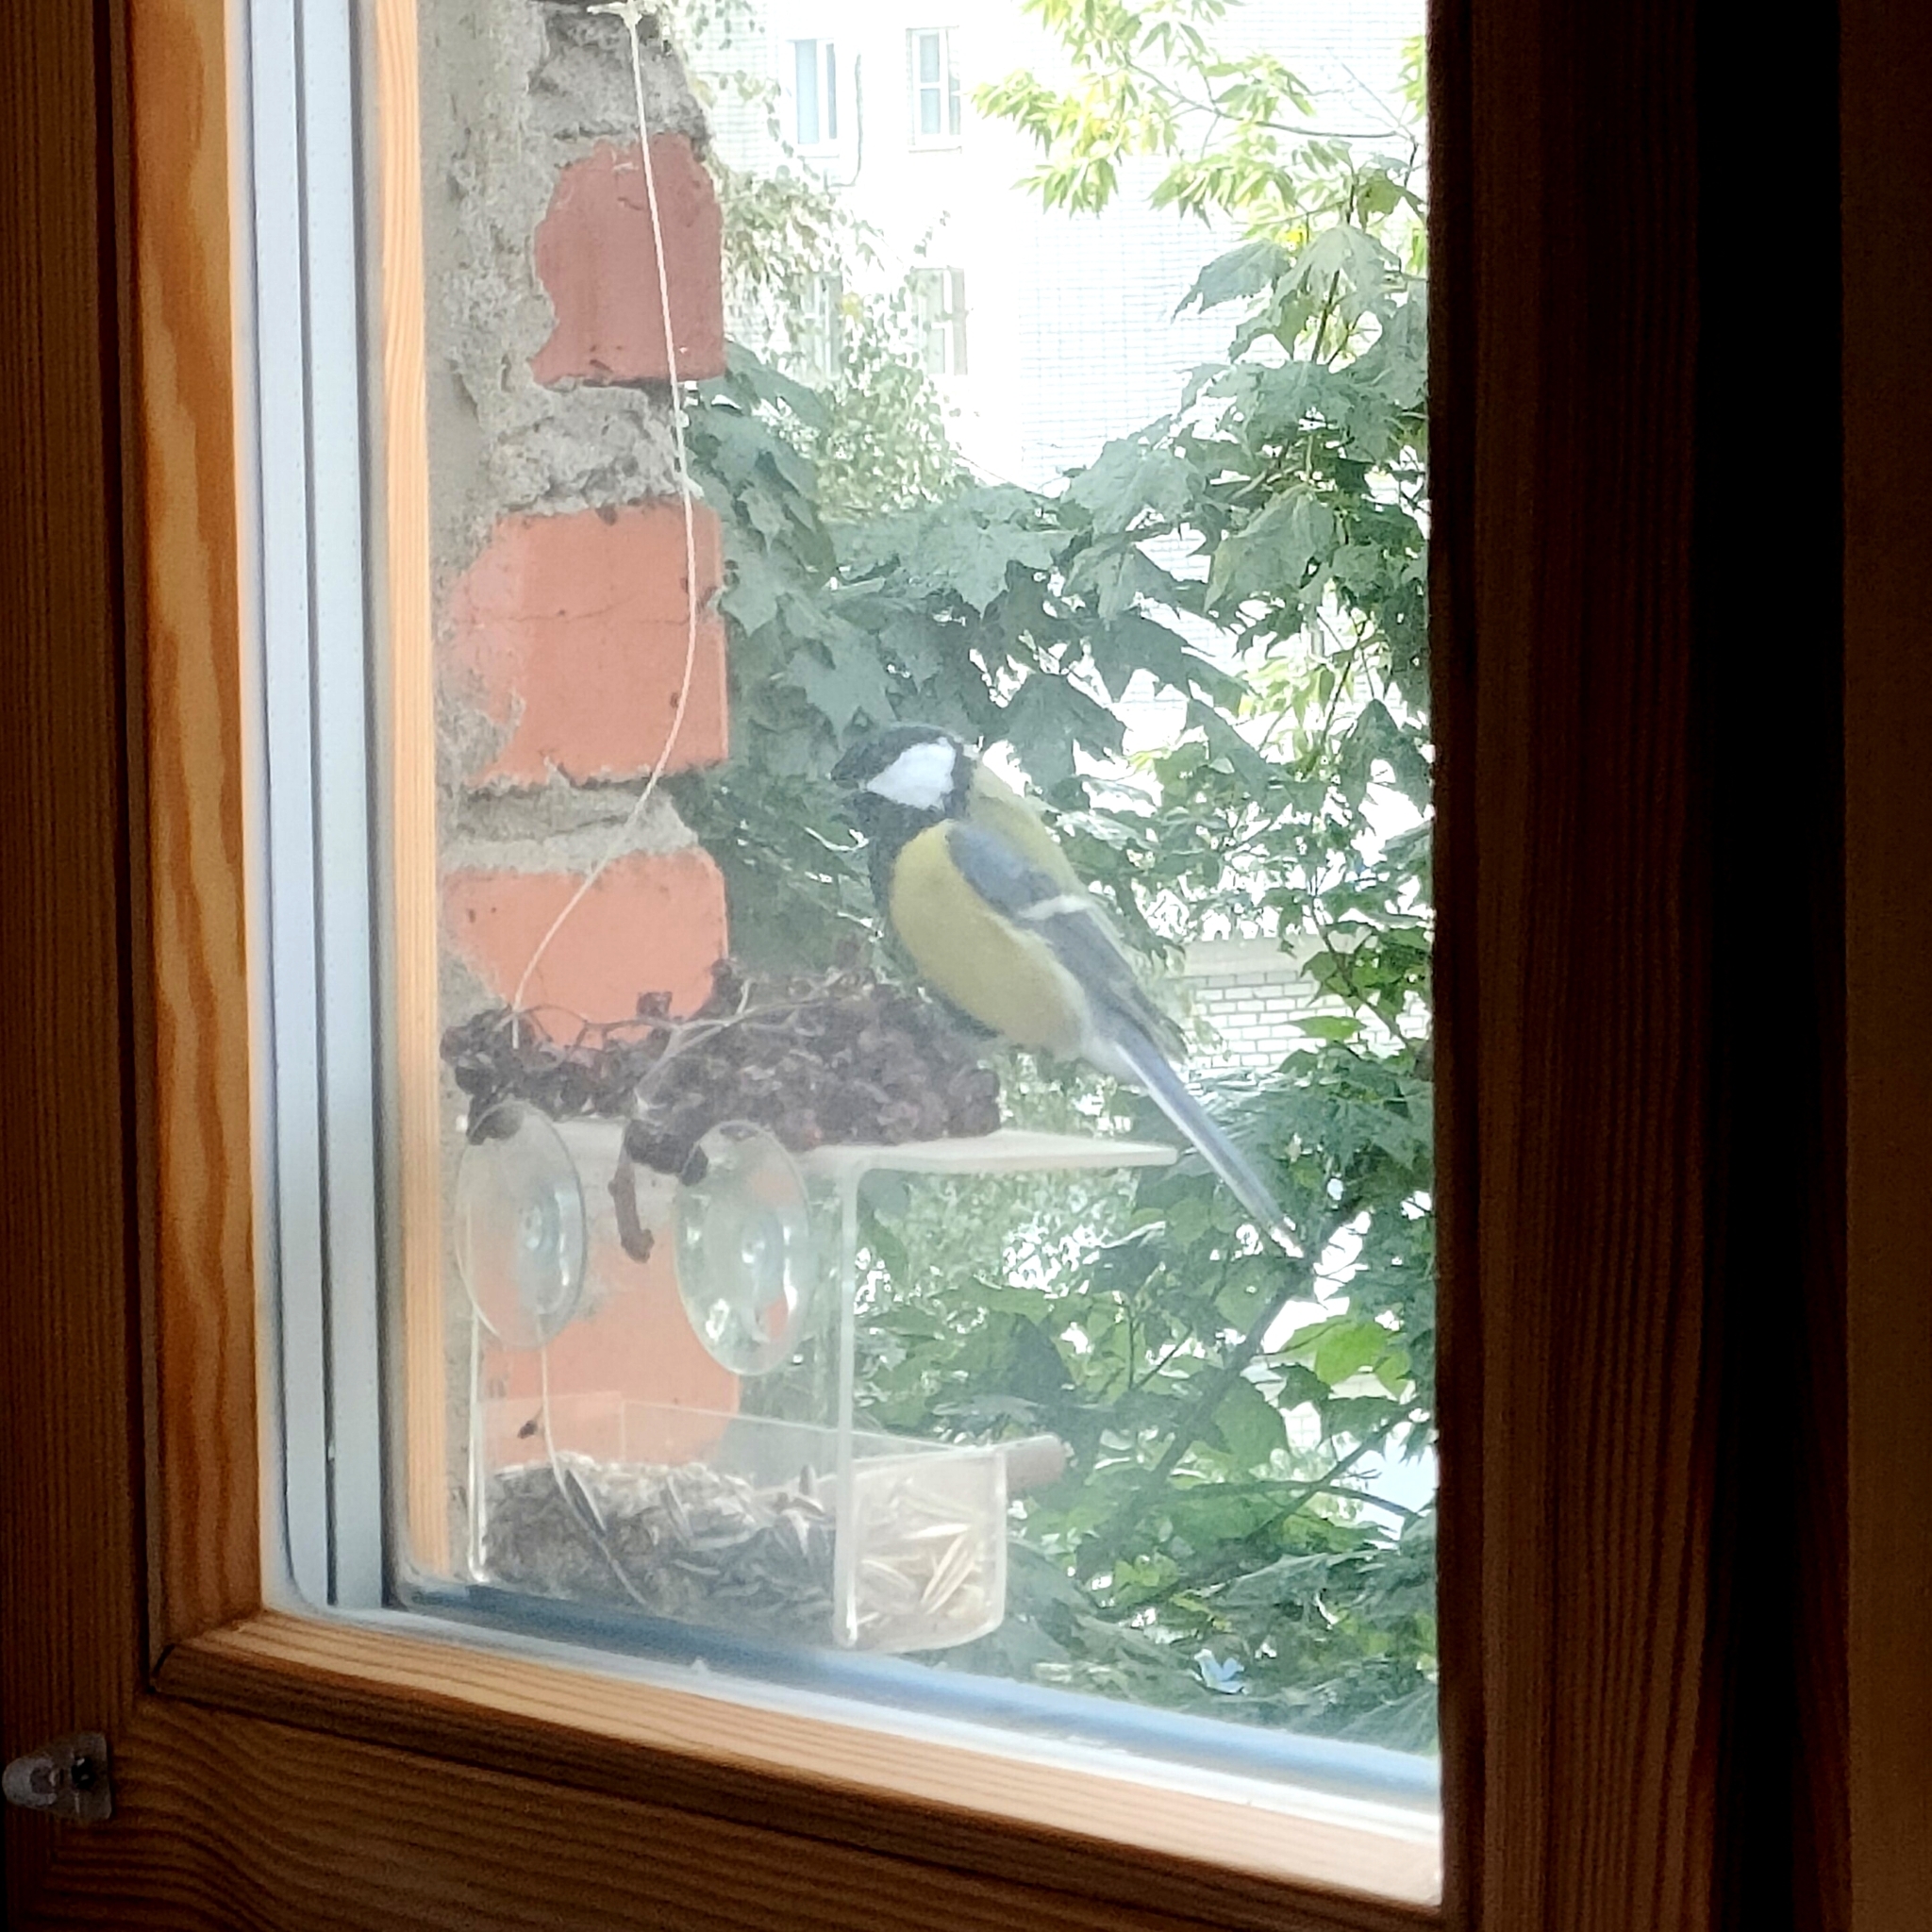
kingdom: Animalia
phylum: Chordata
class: Aves
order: Passeriformes
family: Paridae
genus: Parus
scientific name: Parus major
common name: Great tit
